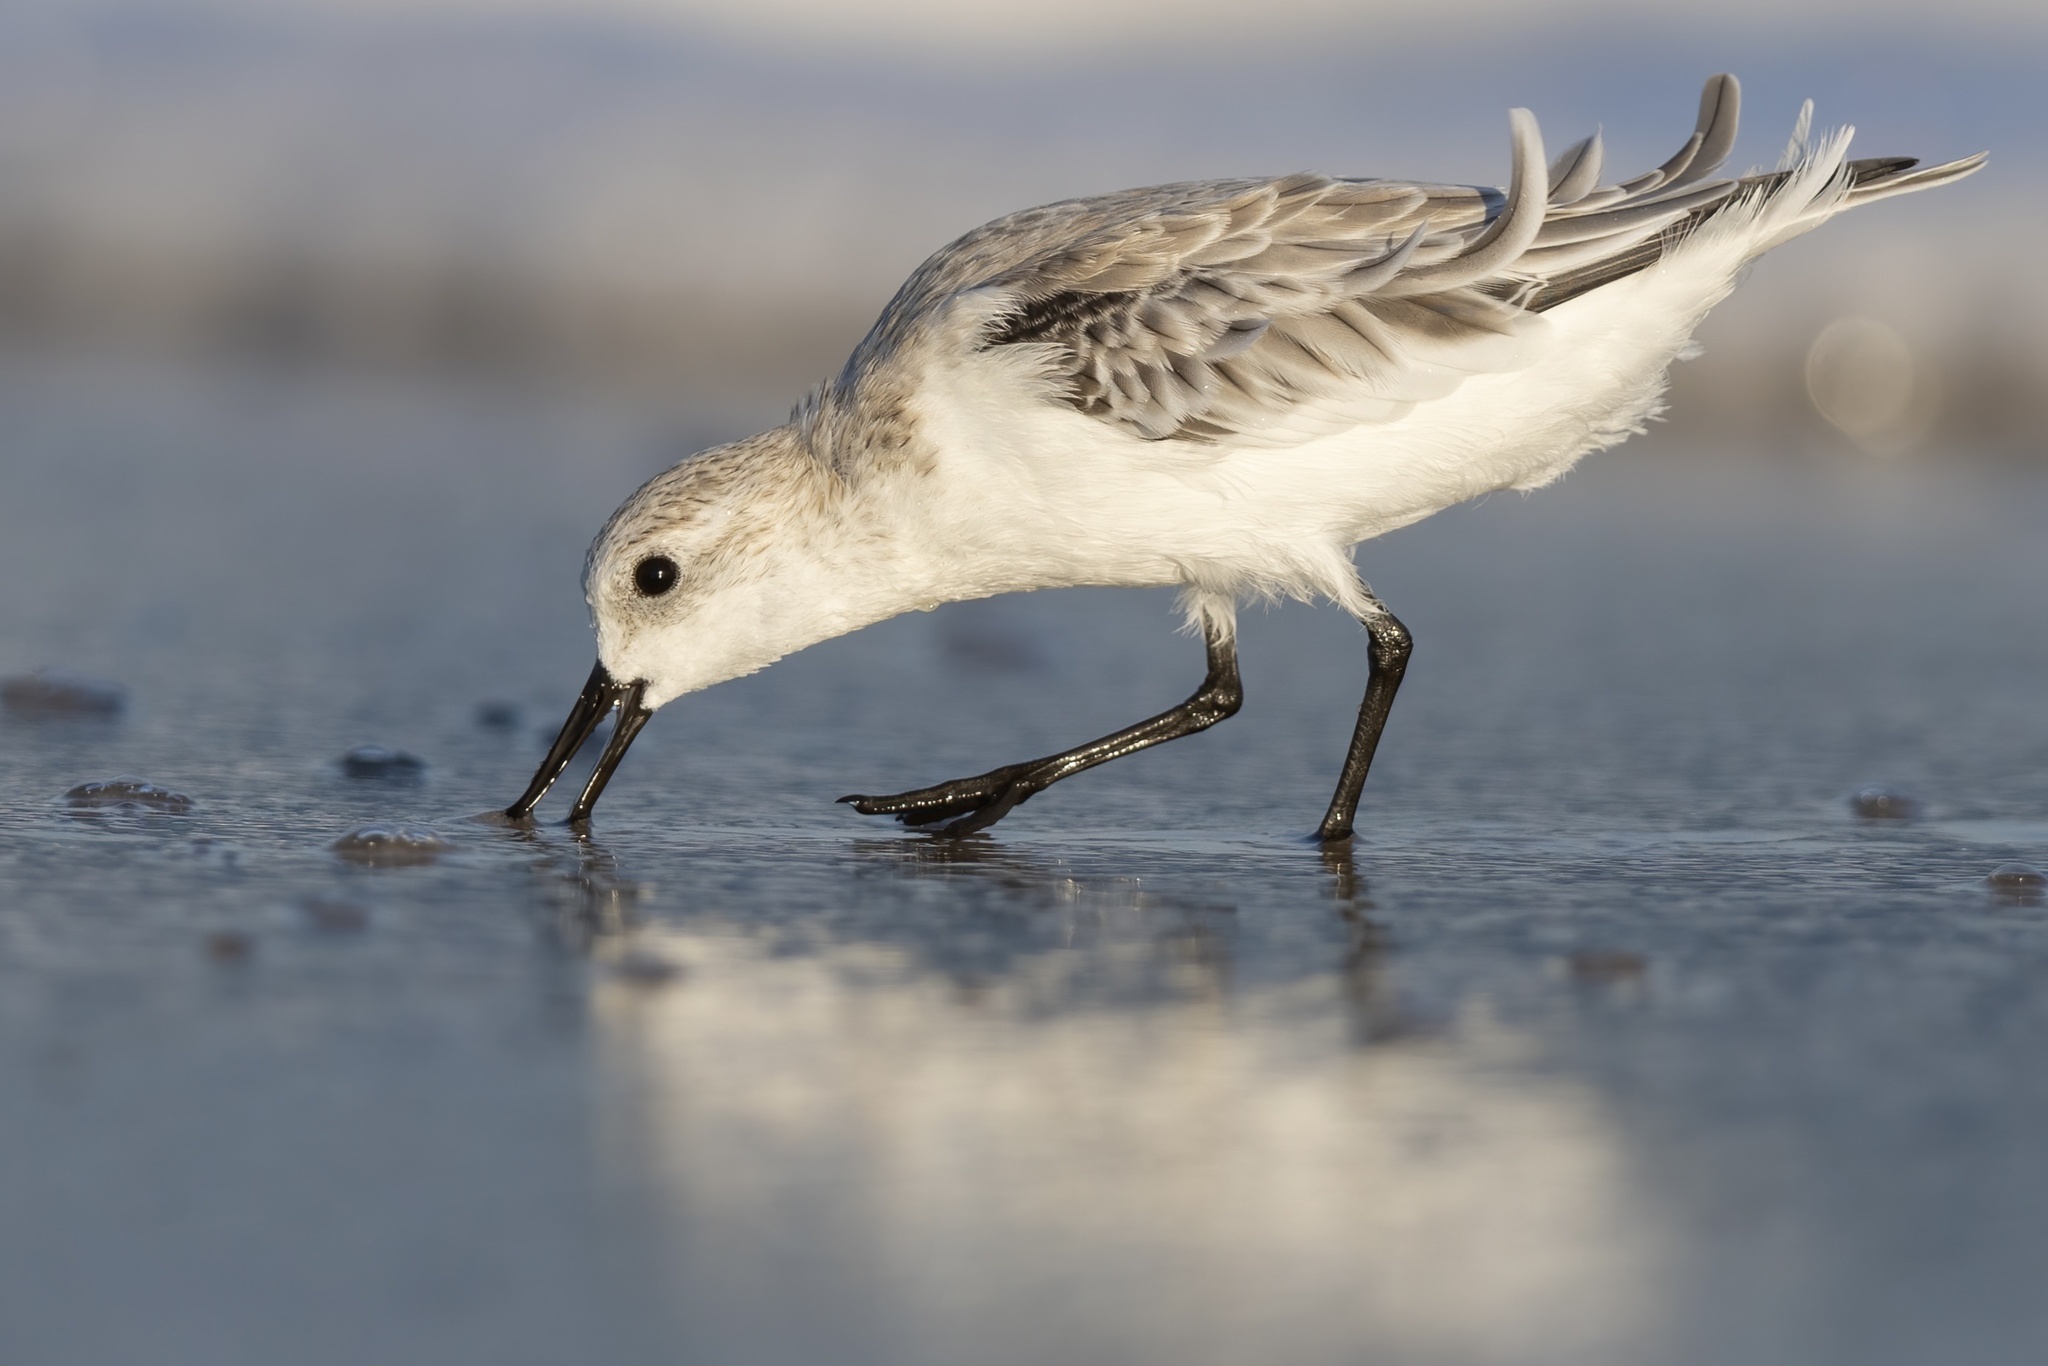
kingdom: Animalia
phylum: Chordata
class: Aves
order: Charadriiformes
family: Scolopacidae
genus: Calidris
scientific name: Calidris alba
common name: Sanderling
